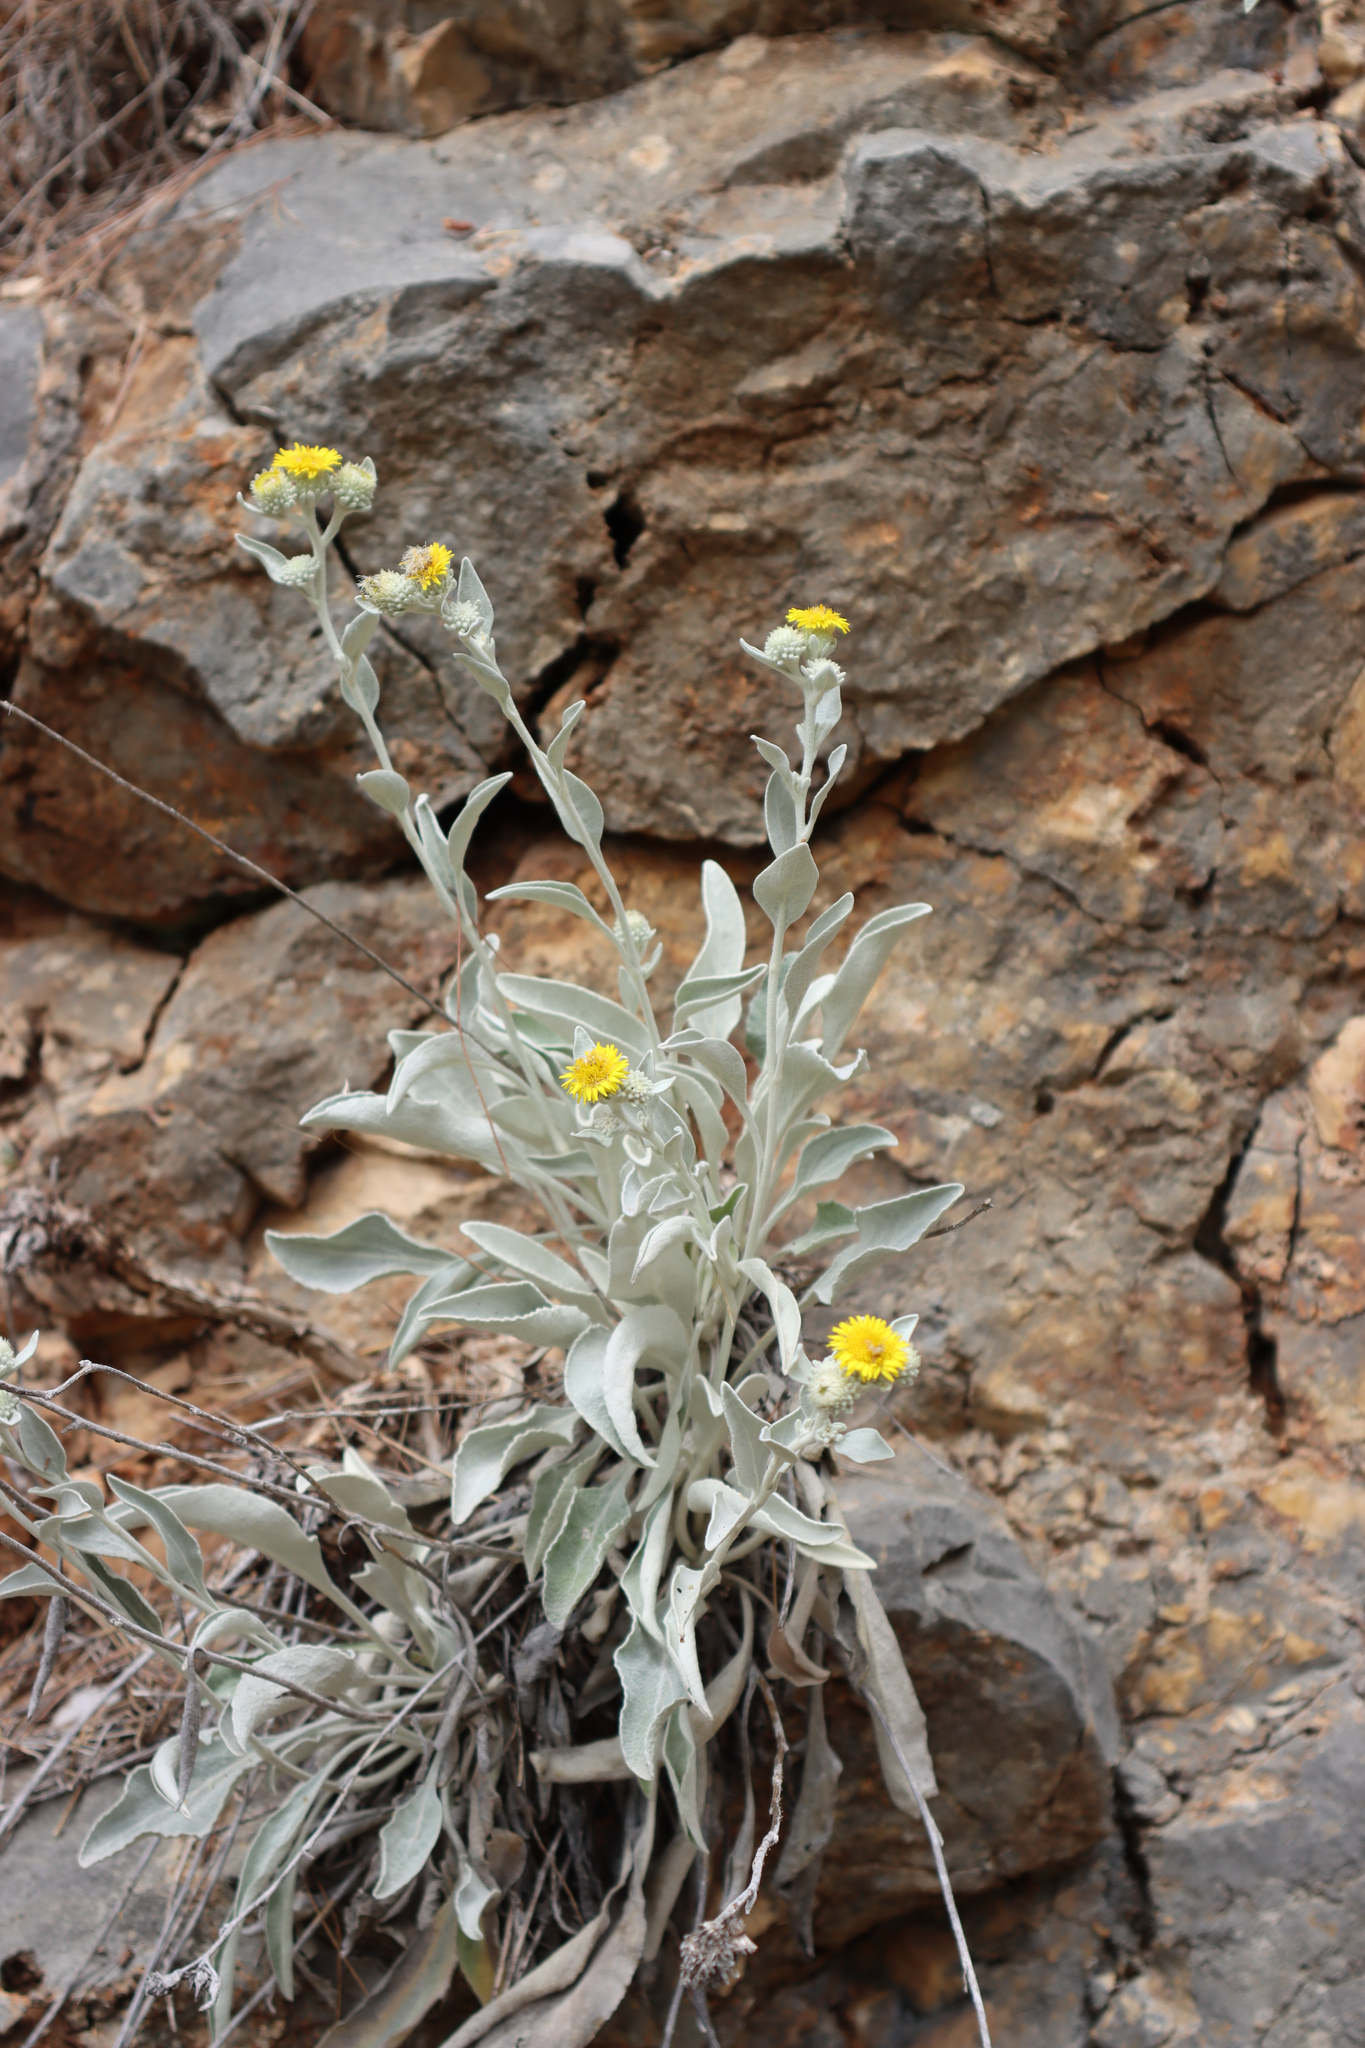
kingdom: Plantae
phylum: Tracheophyta
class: Magnoliopsida
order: Asterales
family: Asteraceae
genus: Pentanema
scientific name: Pentanema verbascifolium
